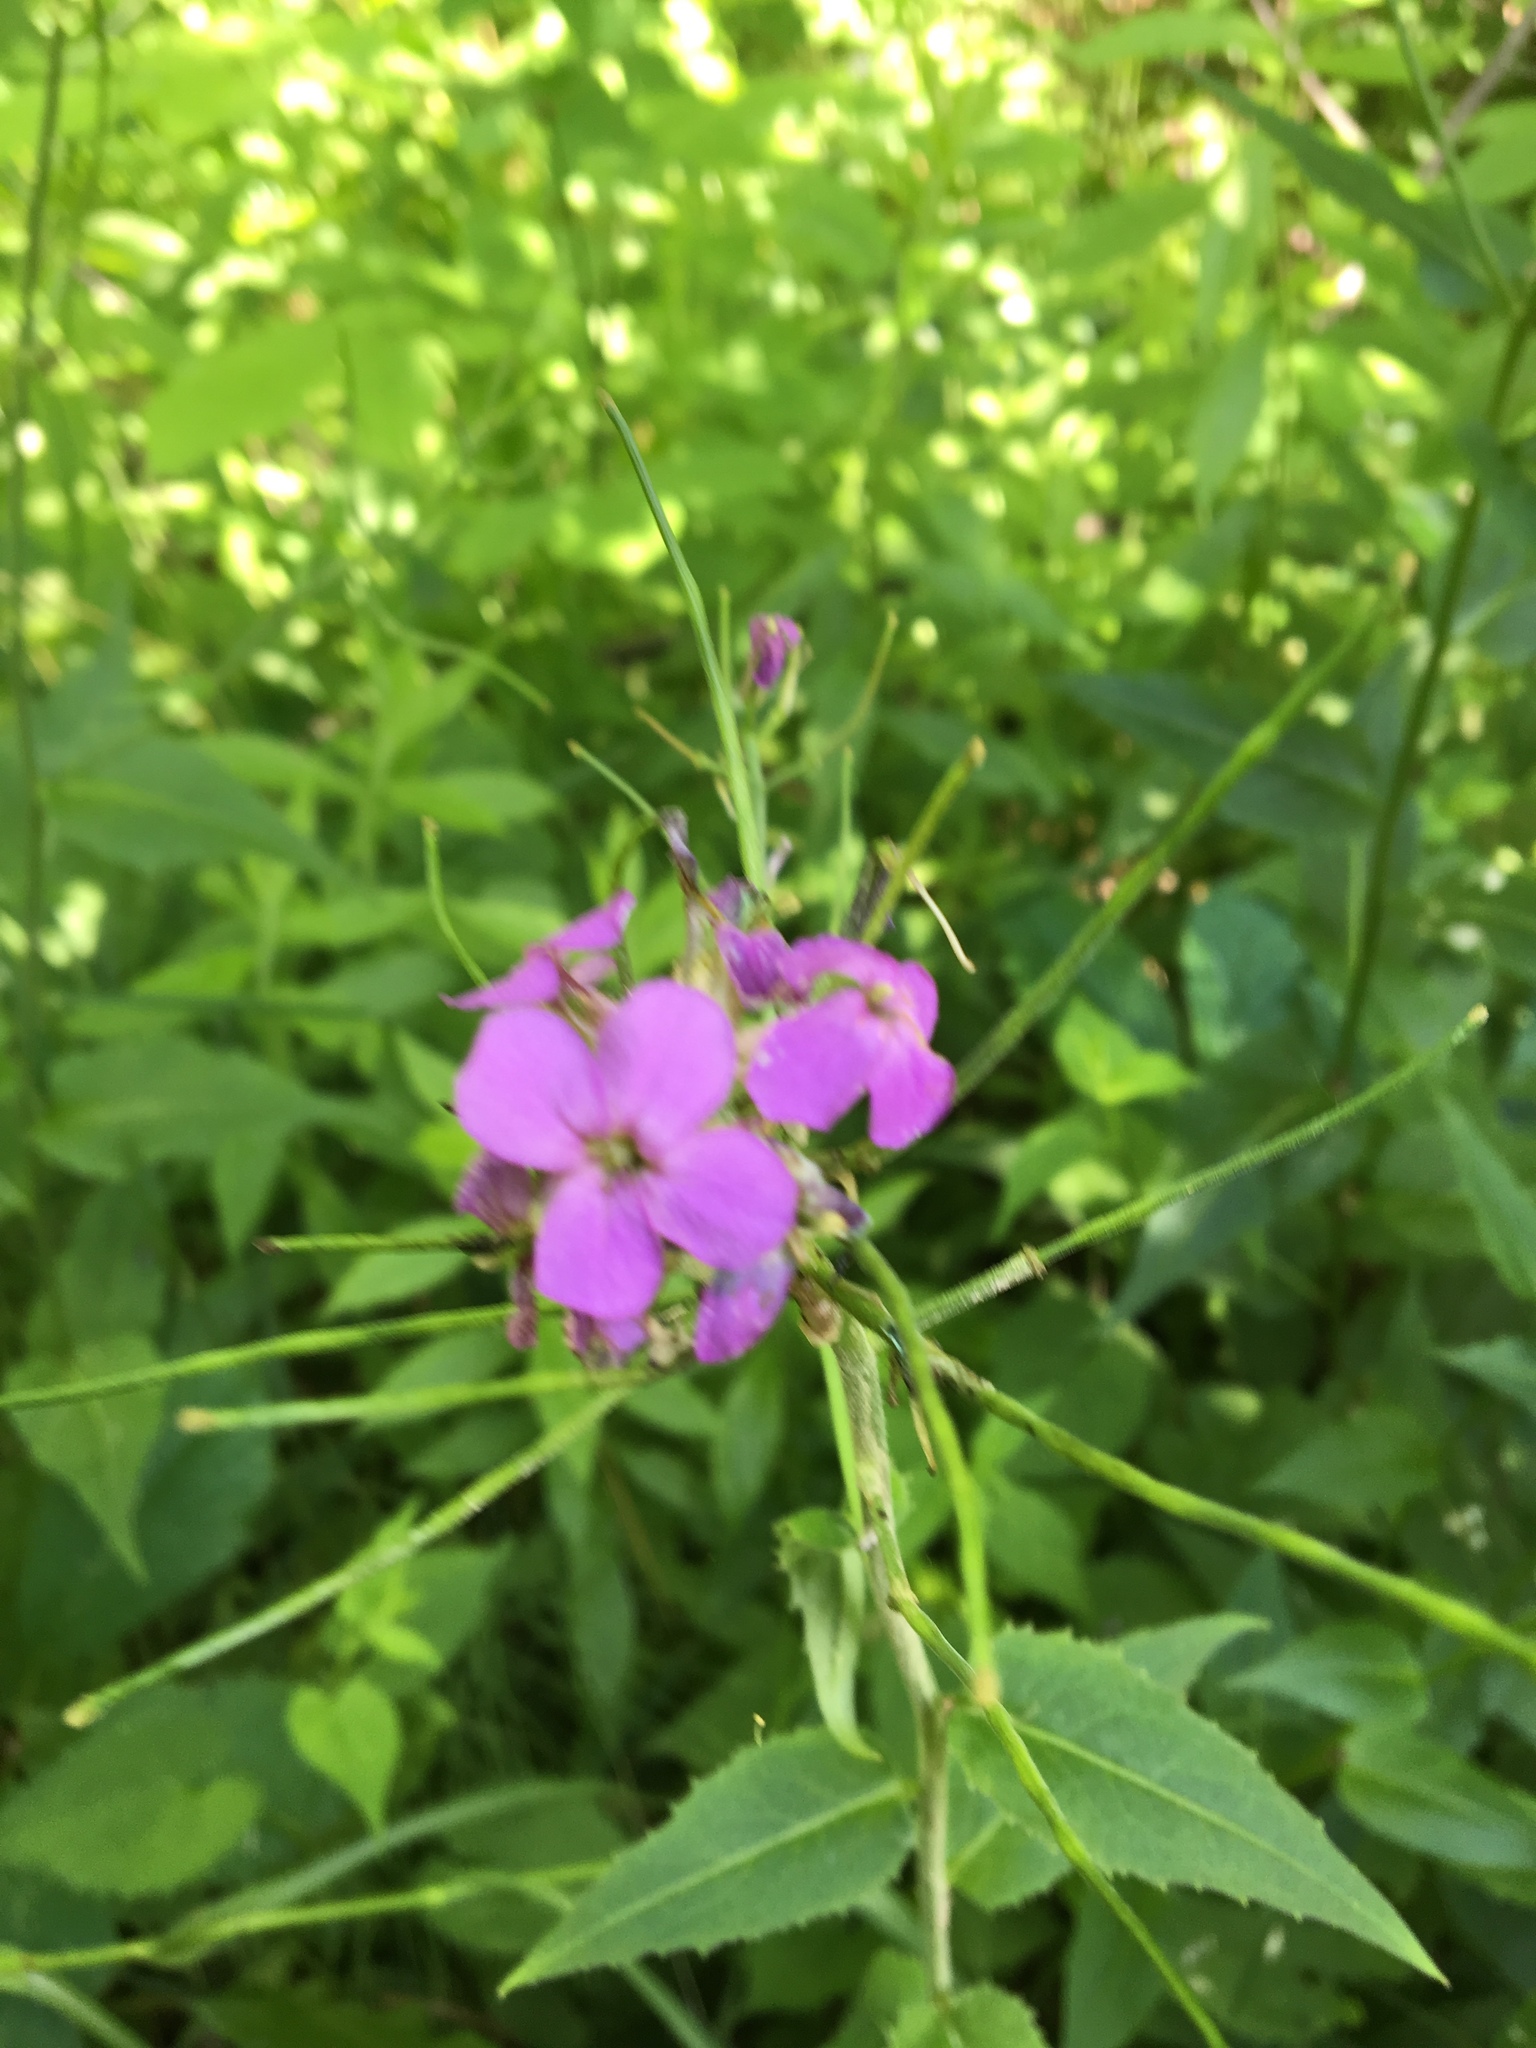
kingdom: Plantae
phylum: Tracheophyta
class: Magnoliopsida
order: Brassicales
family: Brassicaceae
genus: Hesperis
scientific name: Hesperis matronalis
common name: Dame's-violet
